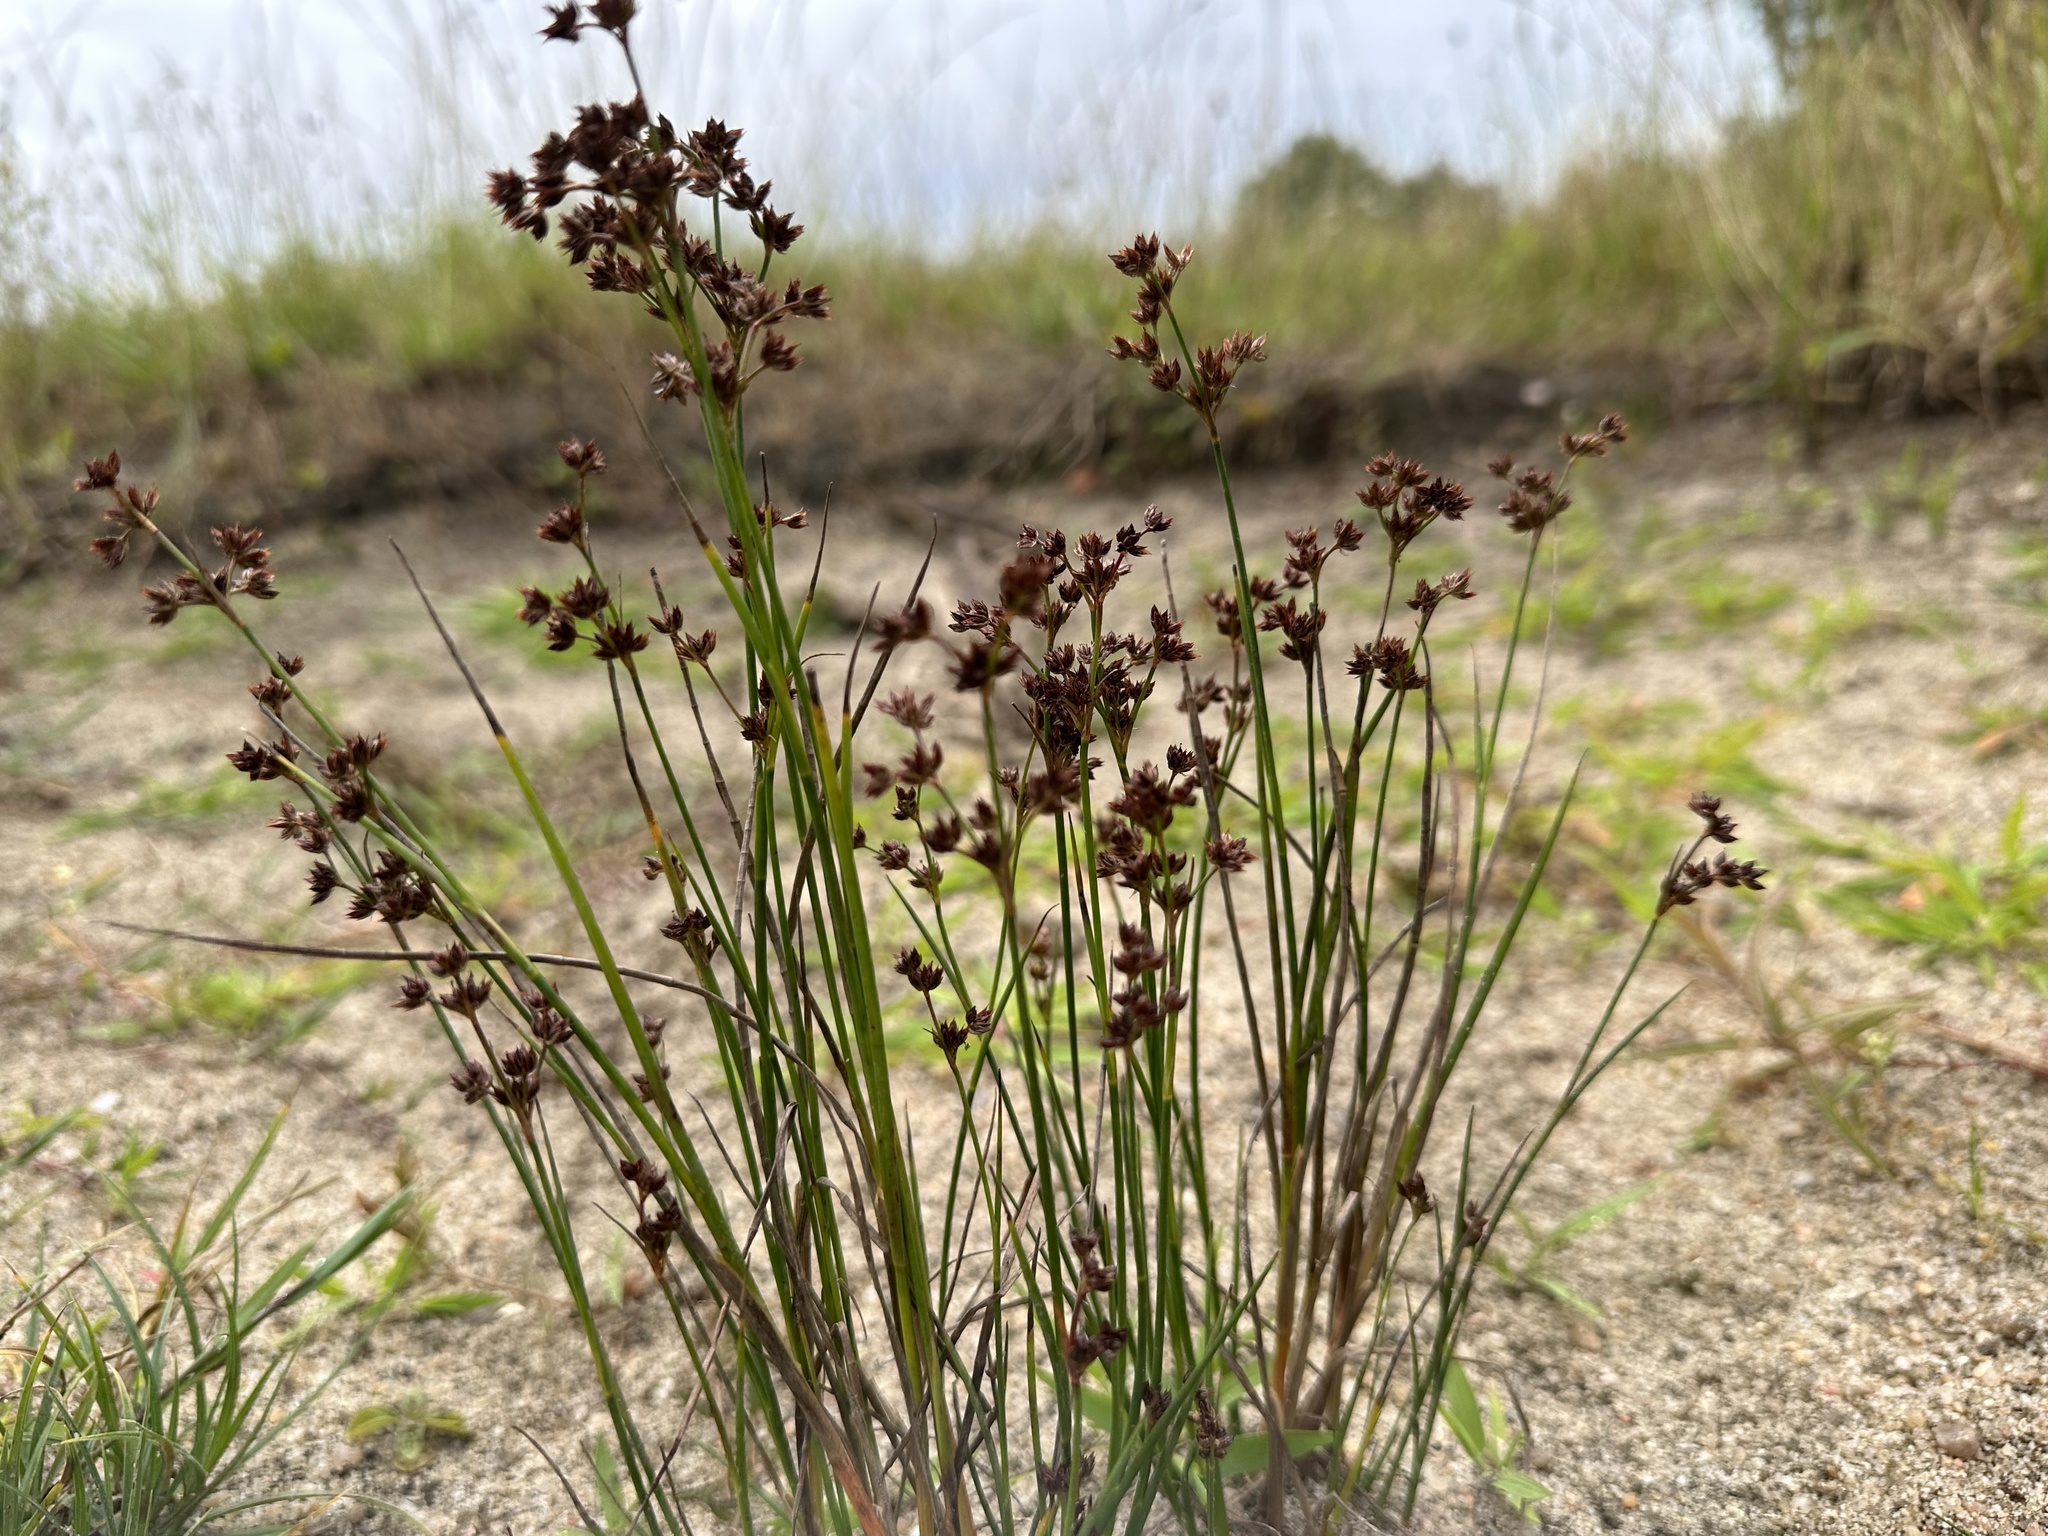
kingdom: Plantae
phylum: Tracheophyta
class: Liliopsida
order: Poales
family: Juncaceae
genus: Juncus
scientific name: Juncus articulatus
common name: Jointed rush
